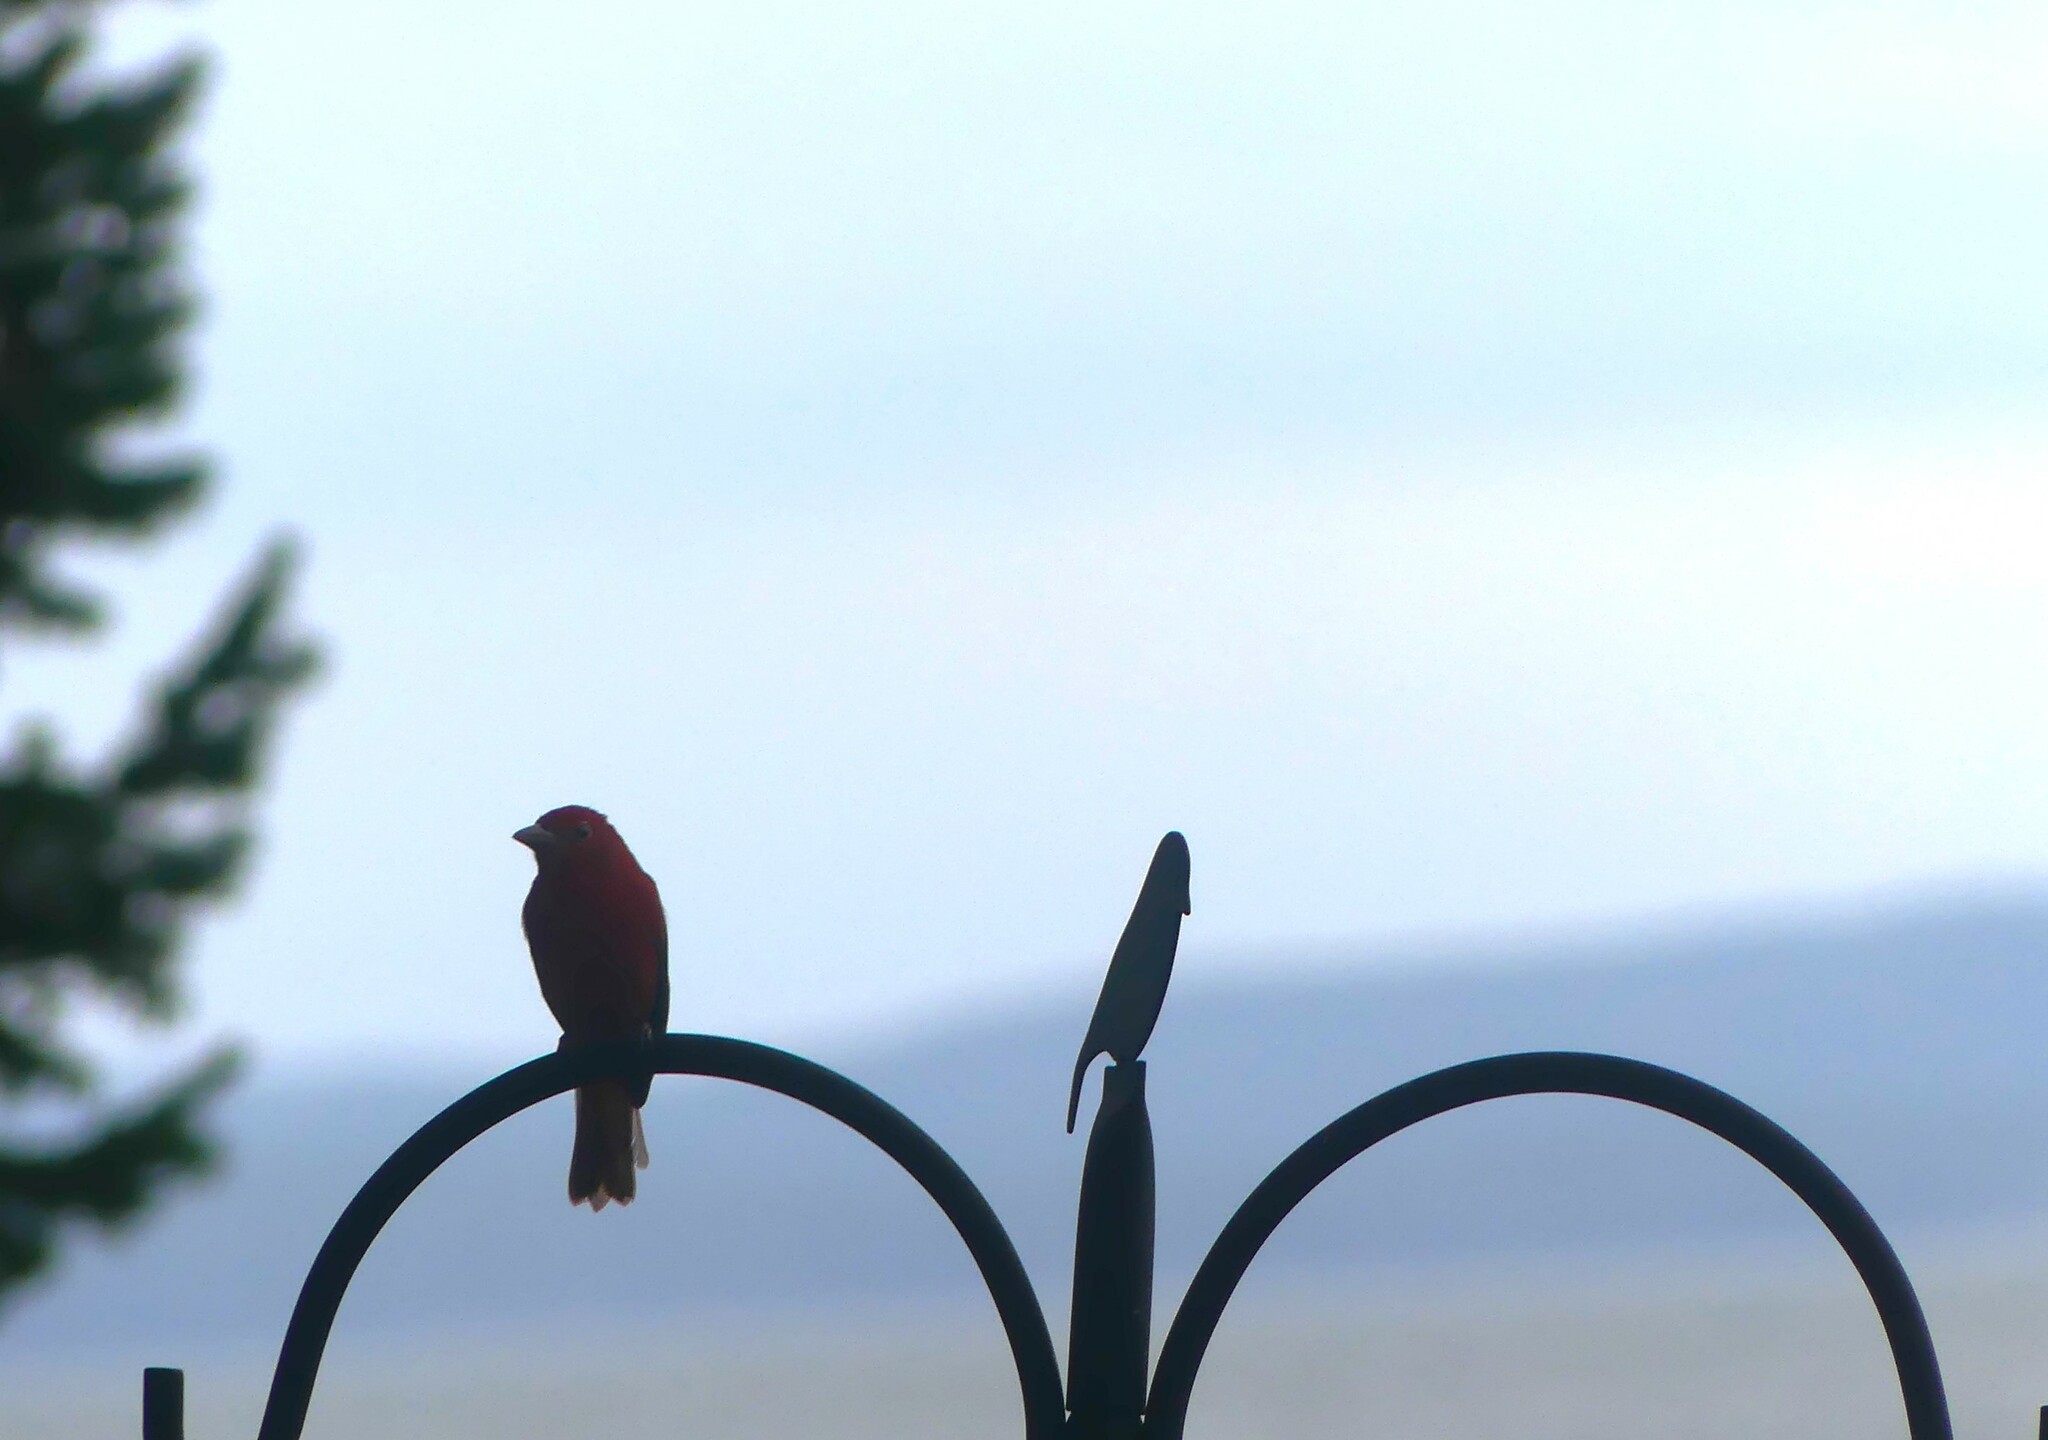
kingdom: Animalia
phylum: Chordata
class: Aves
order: Passeriformes
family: Cardinalidae
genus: Piranga
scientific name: Piranga rubra
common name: Summer tanager
